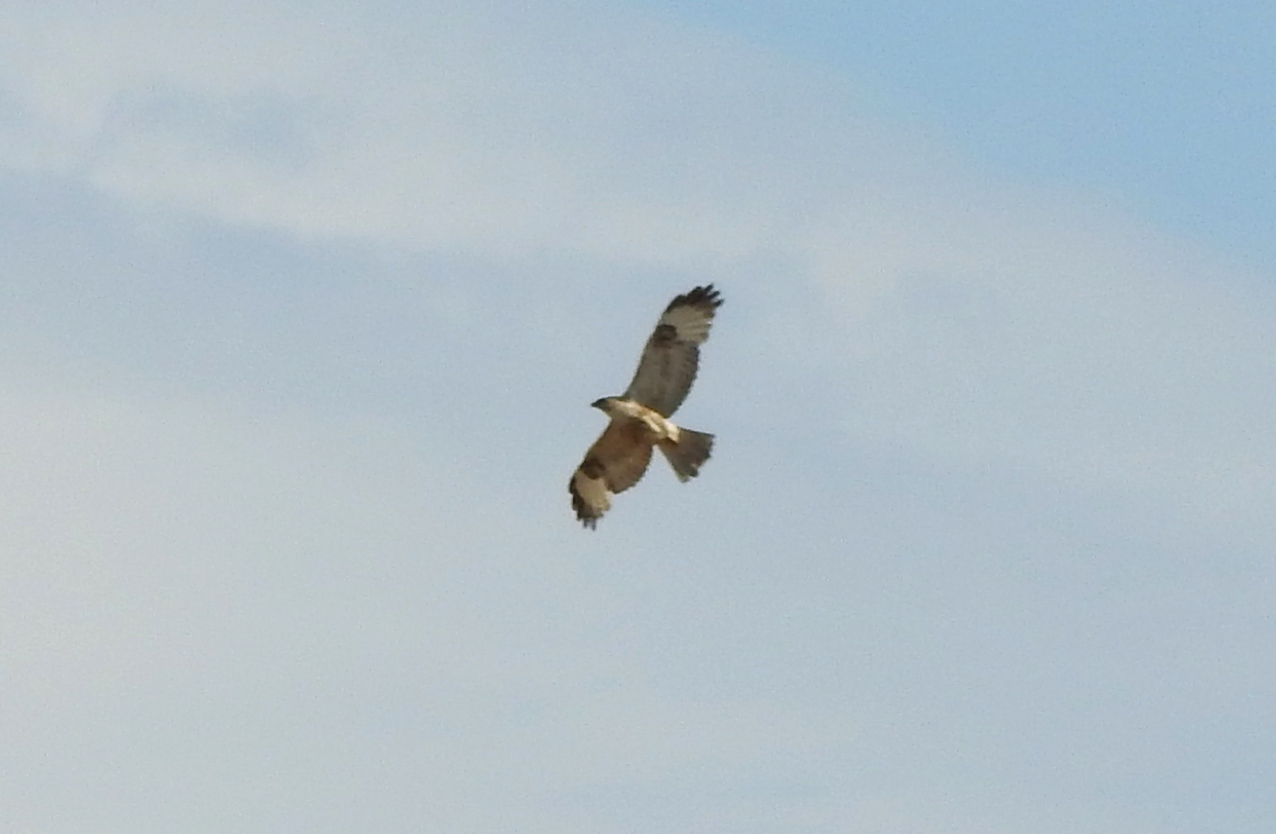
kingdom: Animalia
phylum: Chordata
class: Aves
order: Accipitriformes
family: Accipitridae
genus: Buteo
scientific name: Buteo japonicus
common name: Eastern buzzard
